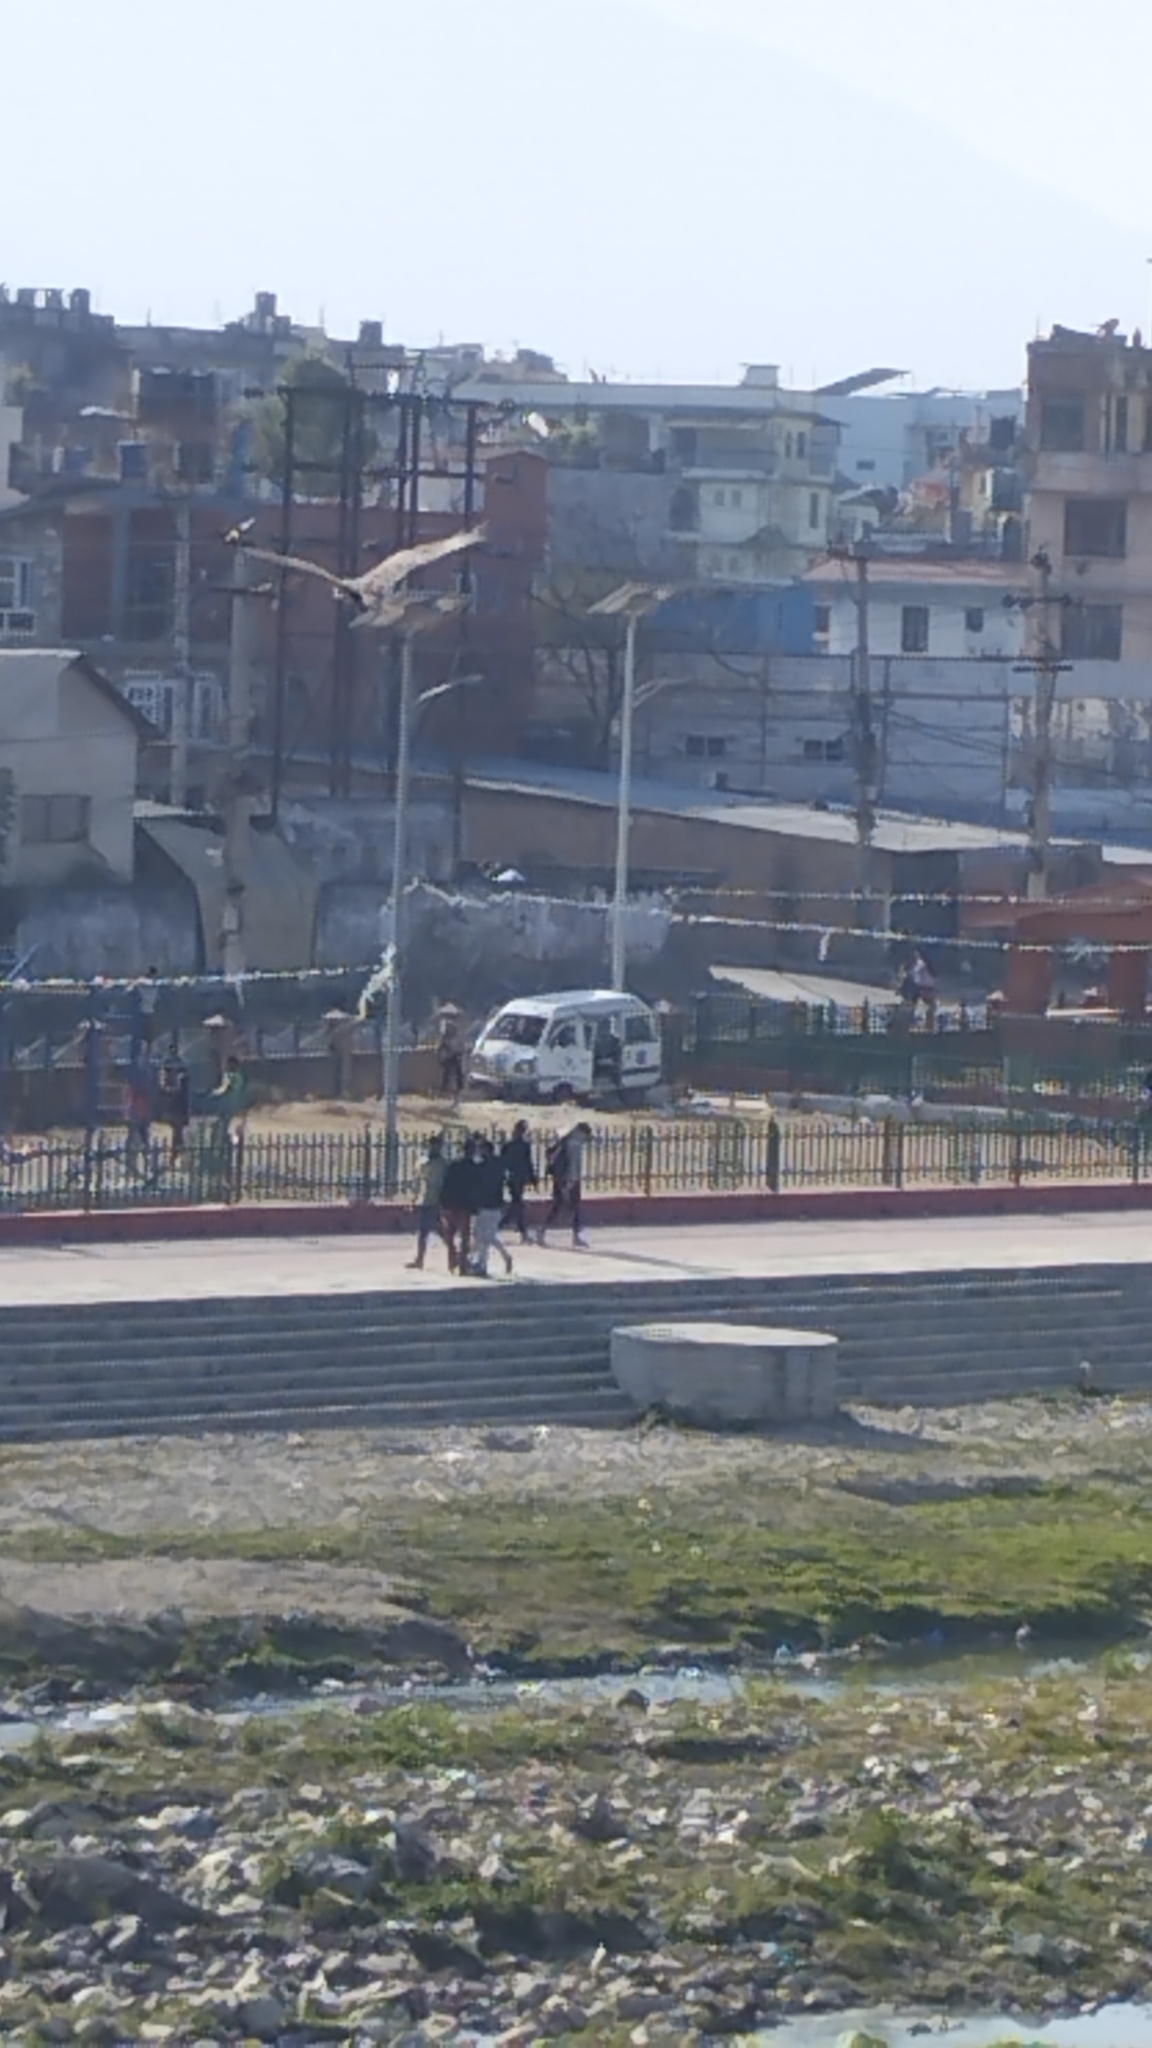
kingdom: Animalia
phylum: Chordata
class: Aves
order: Accipitriformes
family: Accipitridae
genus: Milvus
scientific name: Milvus migrans
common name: Black kite
